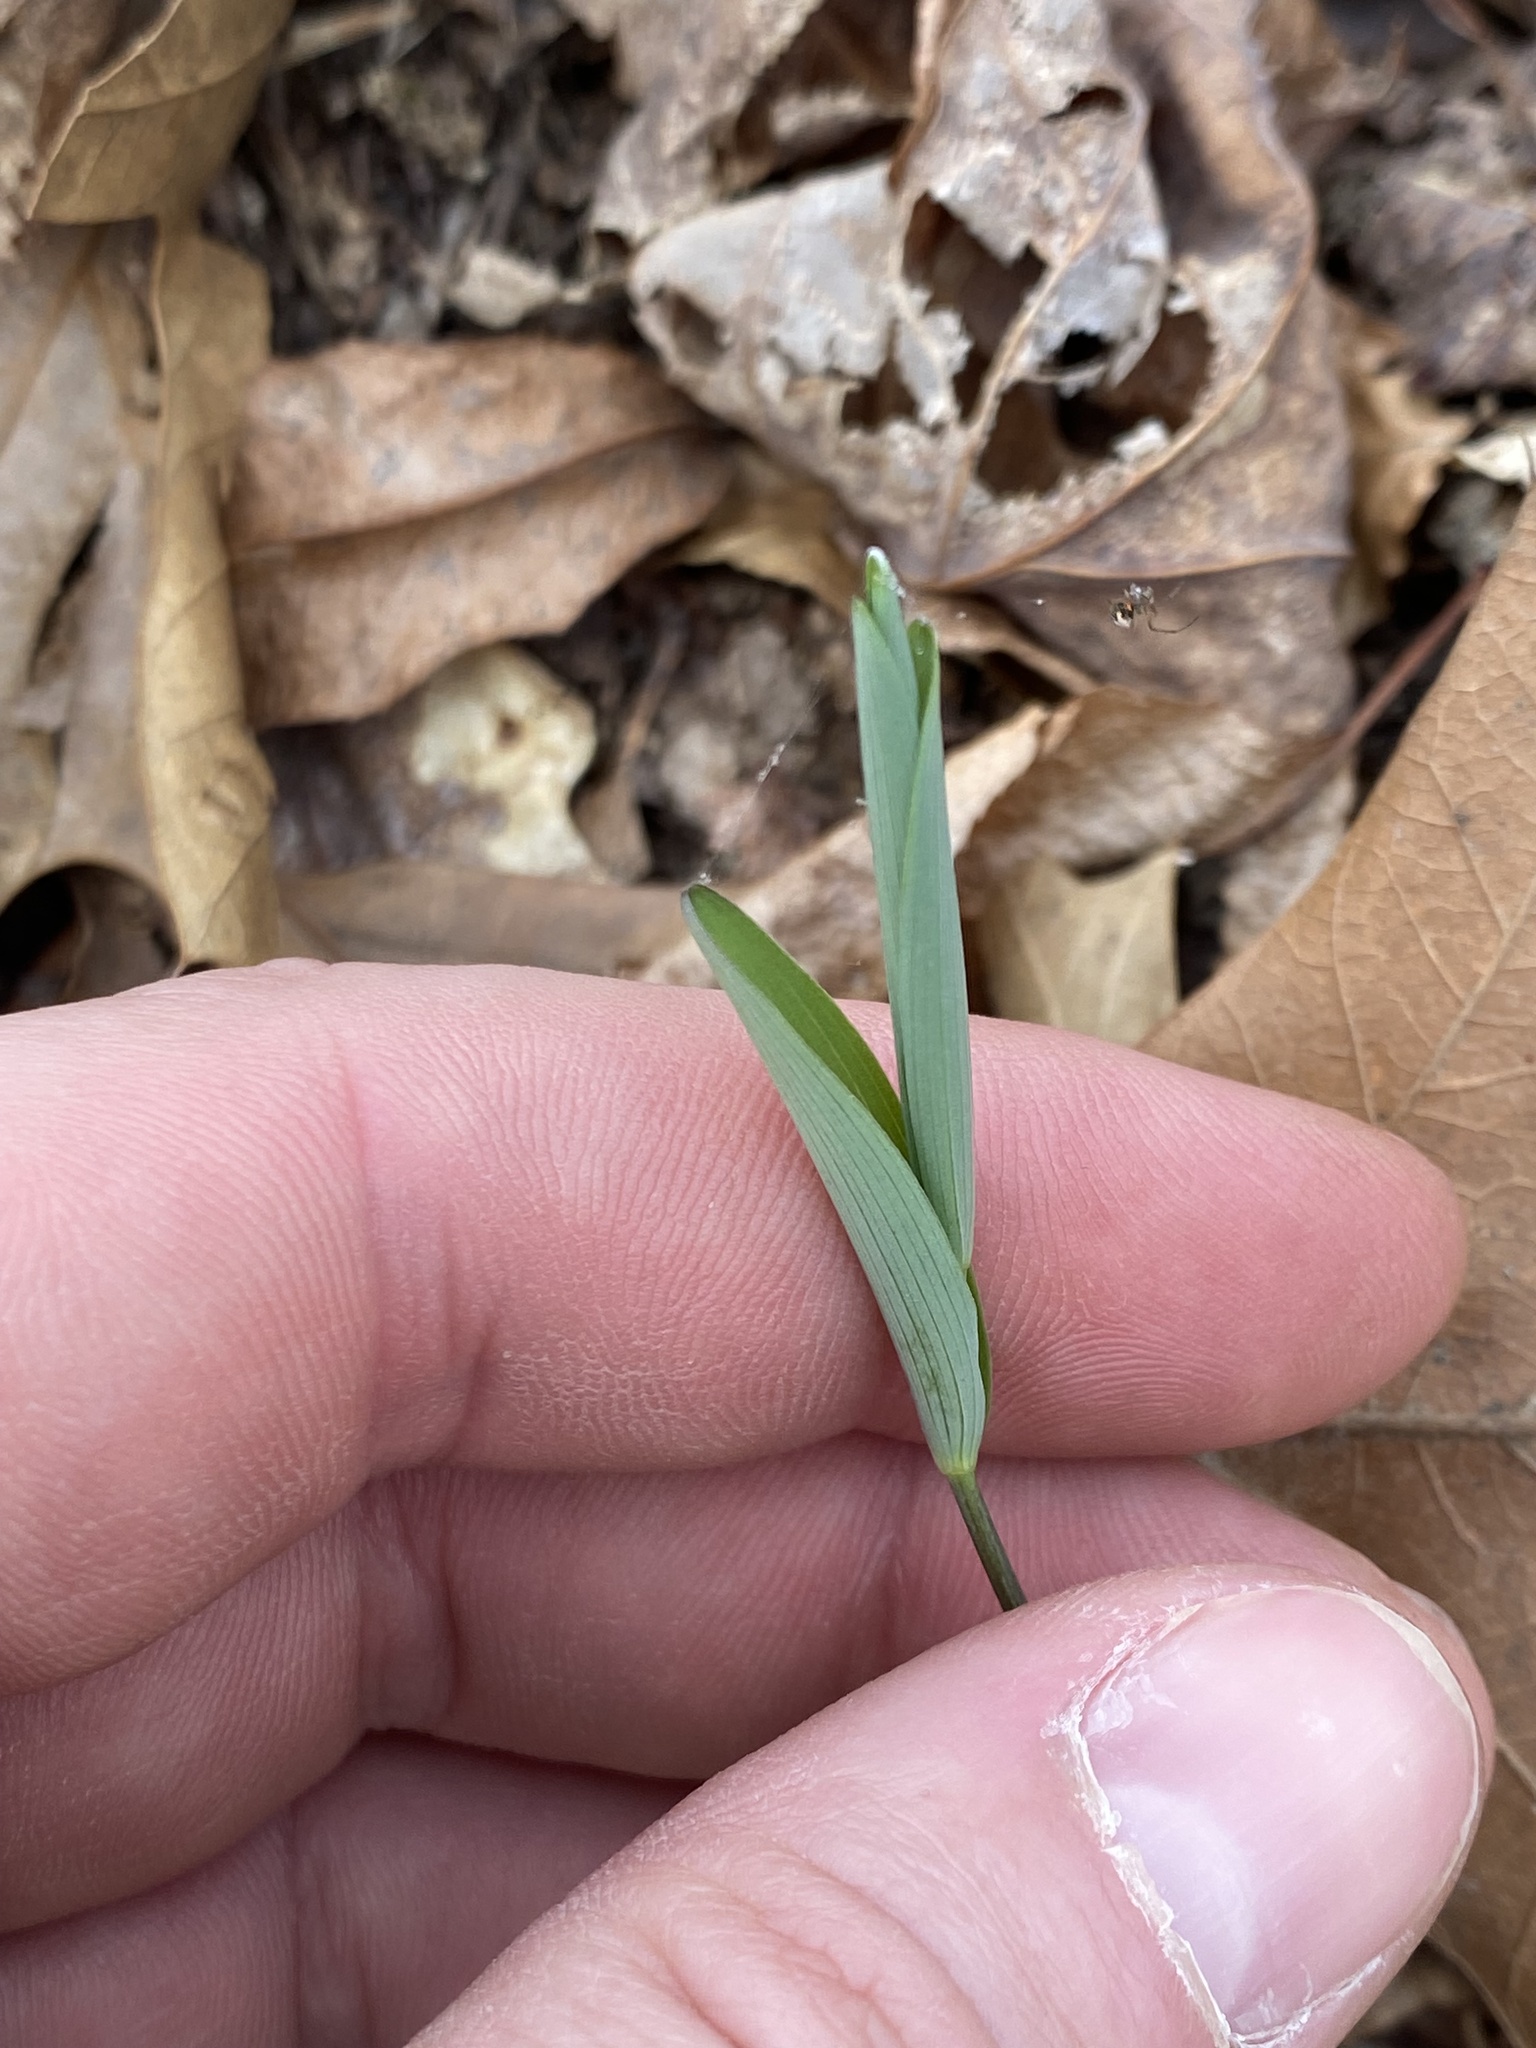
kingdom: Plantae
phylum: Tracheophyta
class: Liliopsida
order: Asparagales
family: Asparagaceae
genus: Polygonatum
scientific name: Polygonatum biflorum
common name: American solomon's-seal
